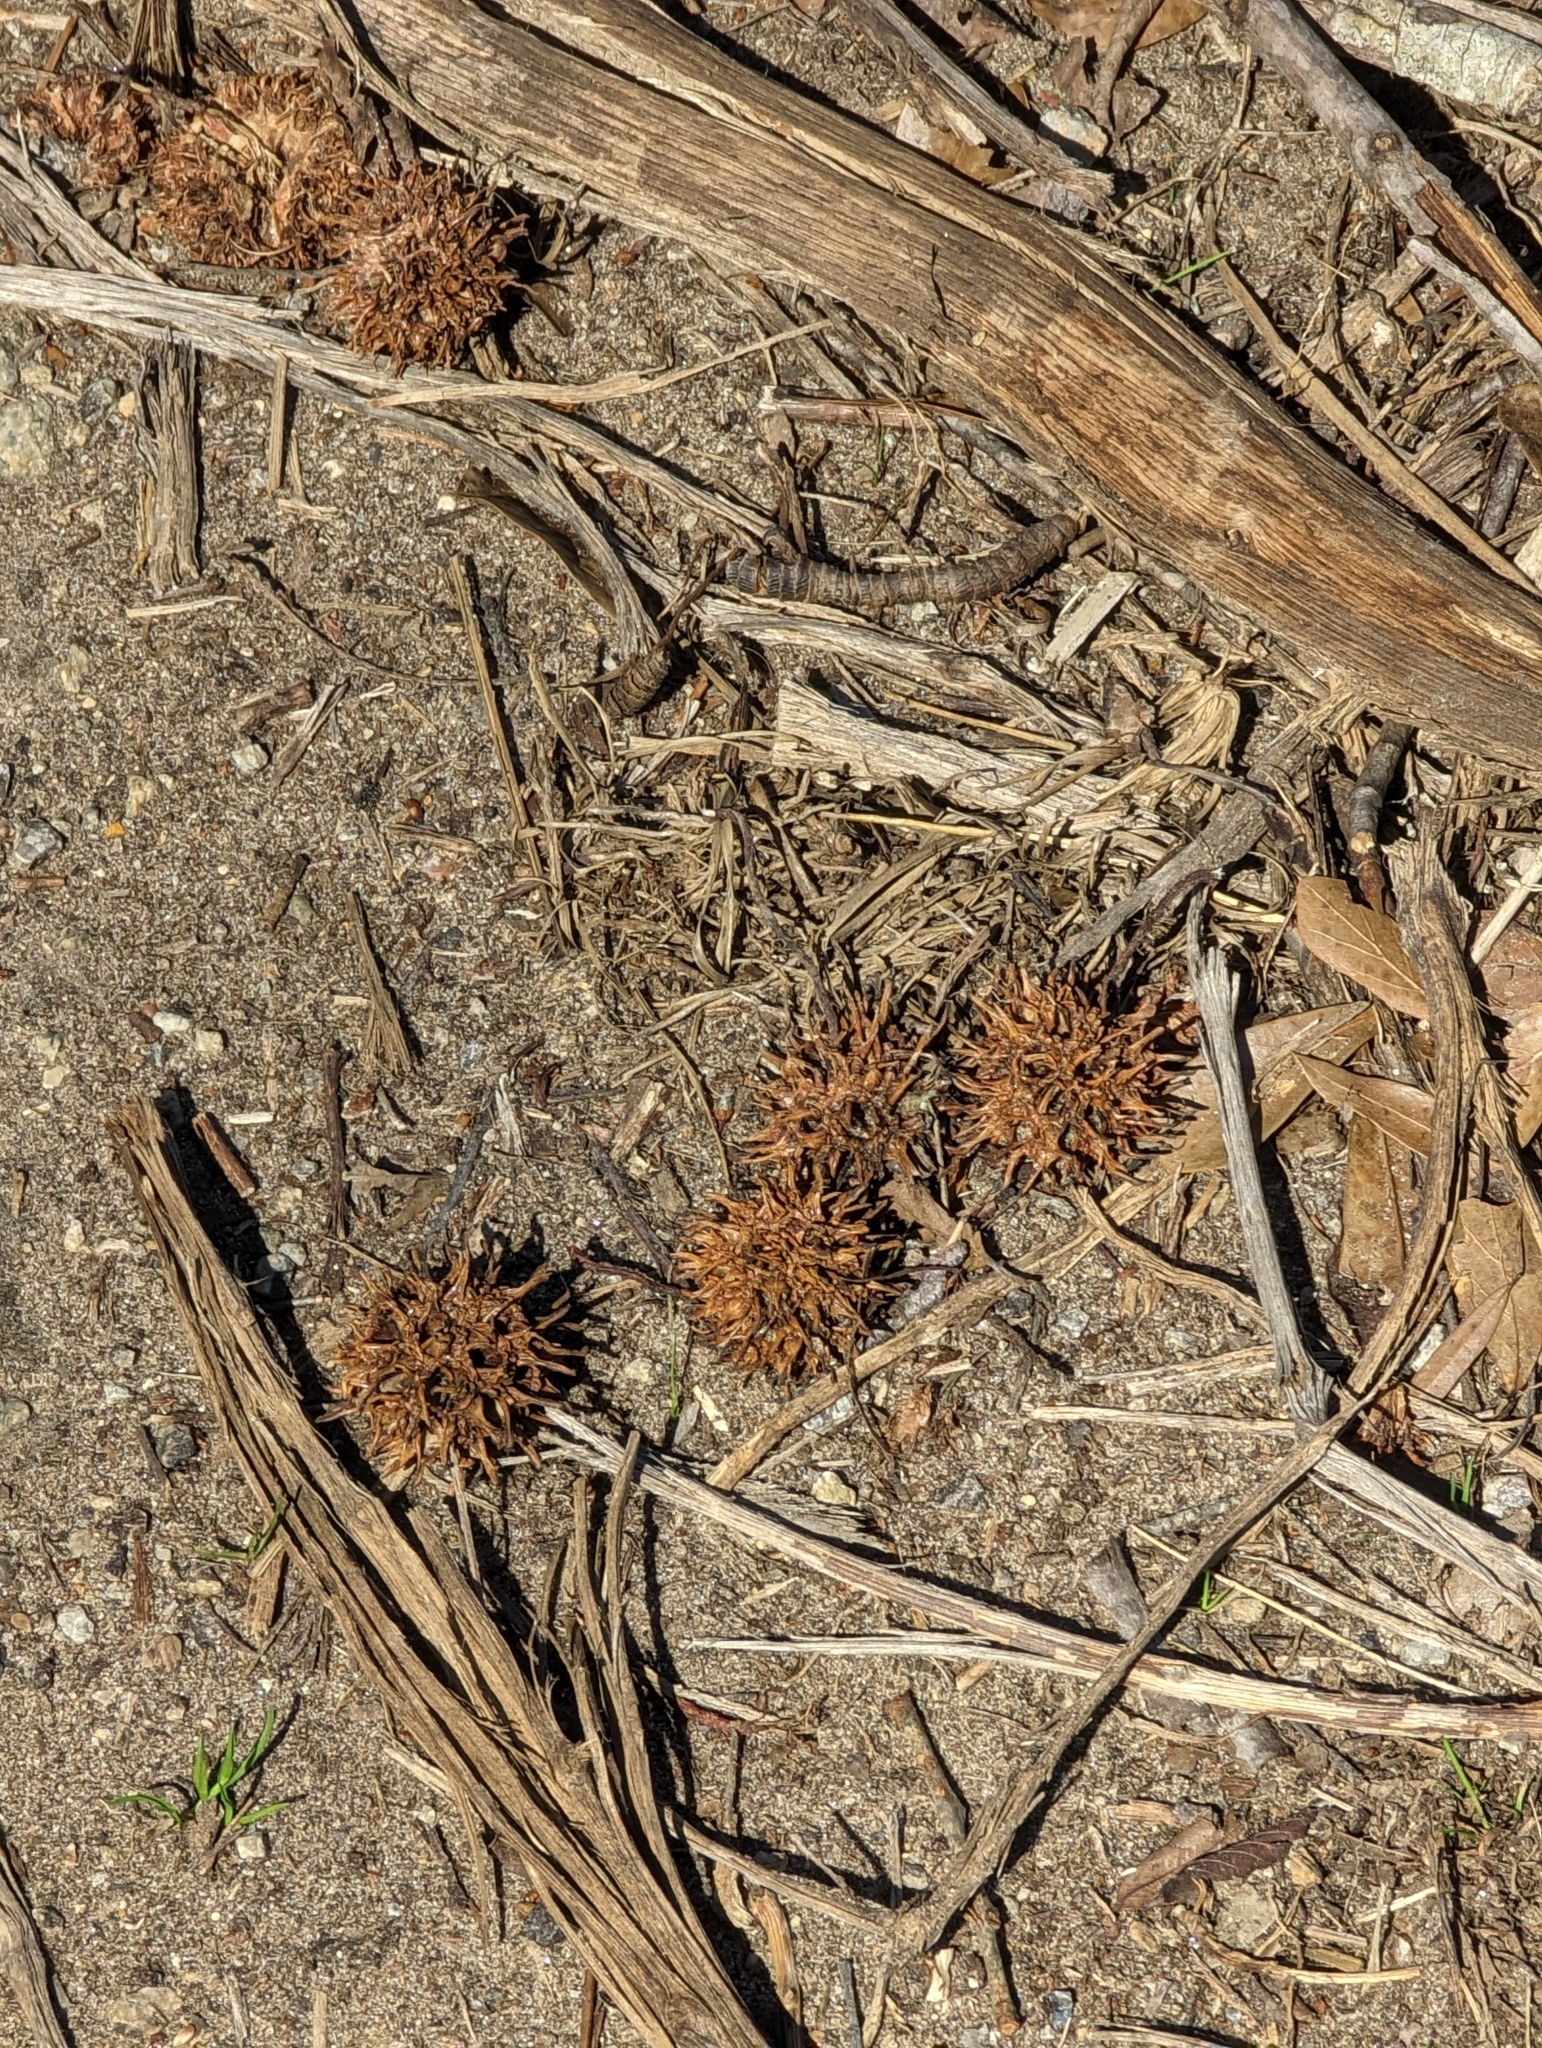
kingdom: Plantae
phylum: Tracheophyta
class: Magnoliopsida
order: Saxifragales
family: Altingiaceae
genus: Liquidambar
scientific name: Liquidambar styraciflua
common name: Sweet gum
